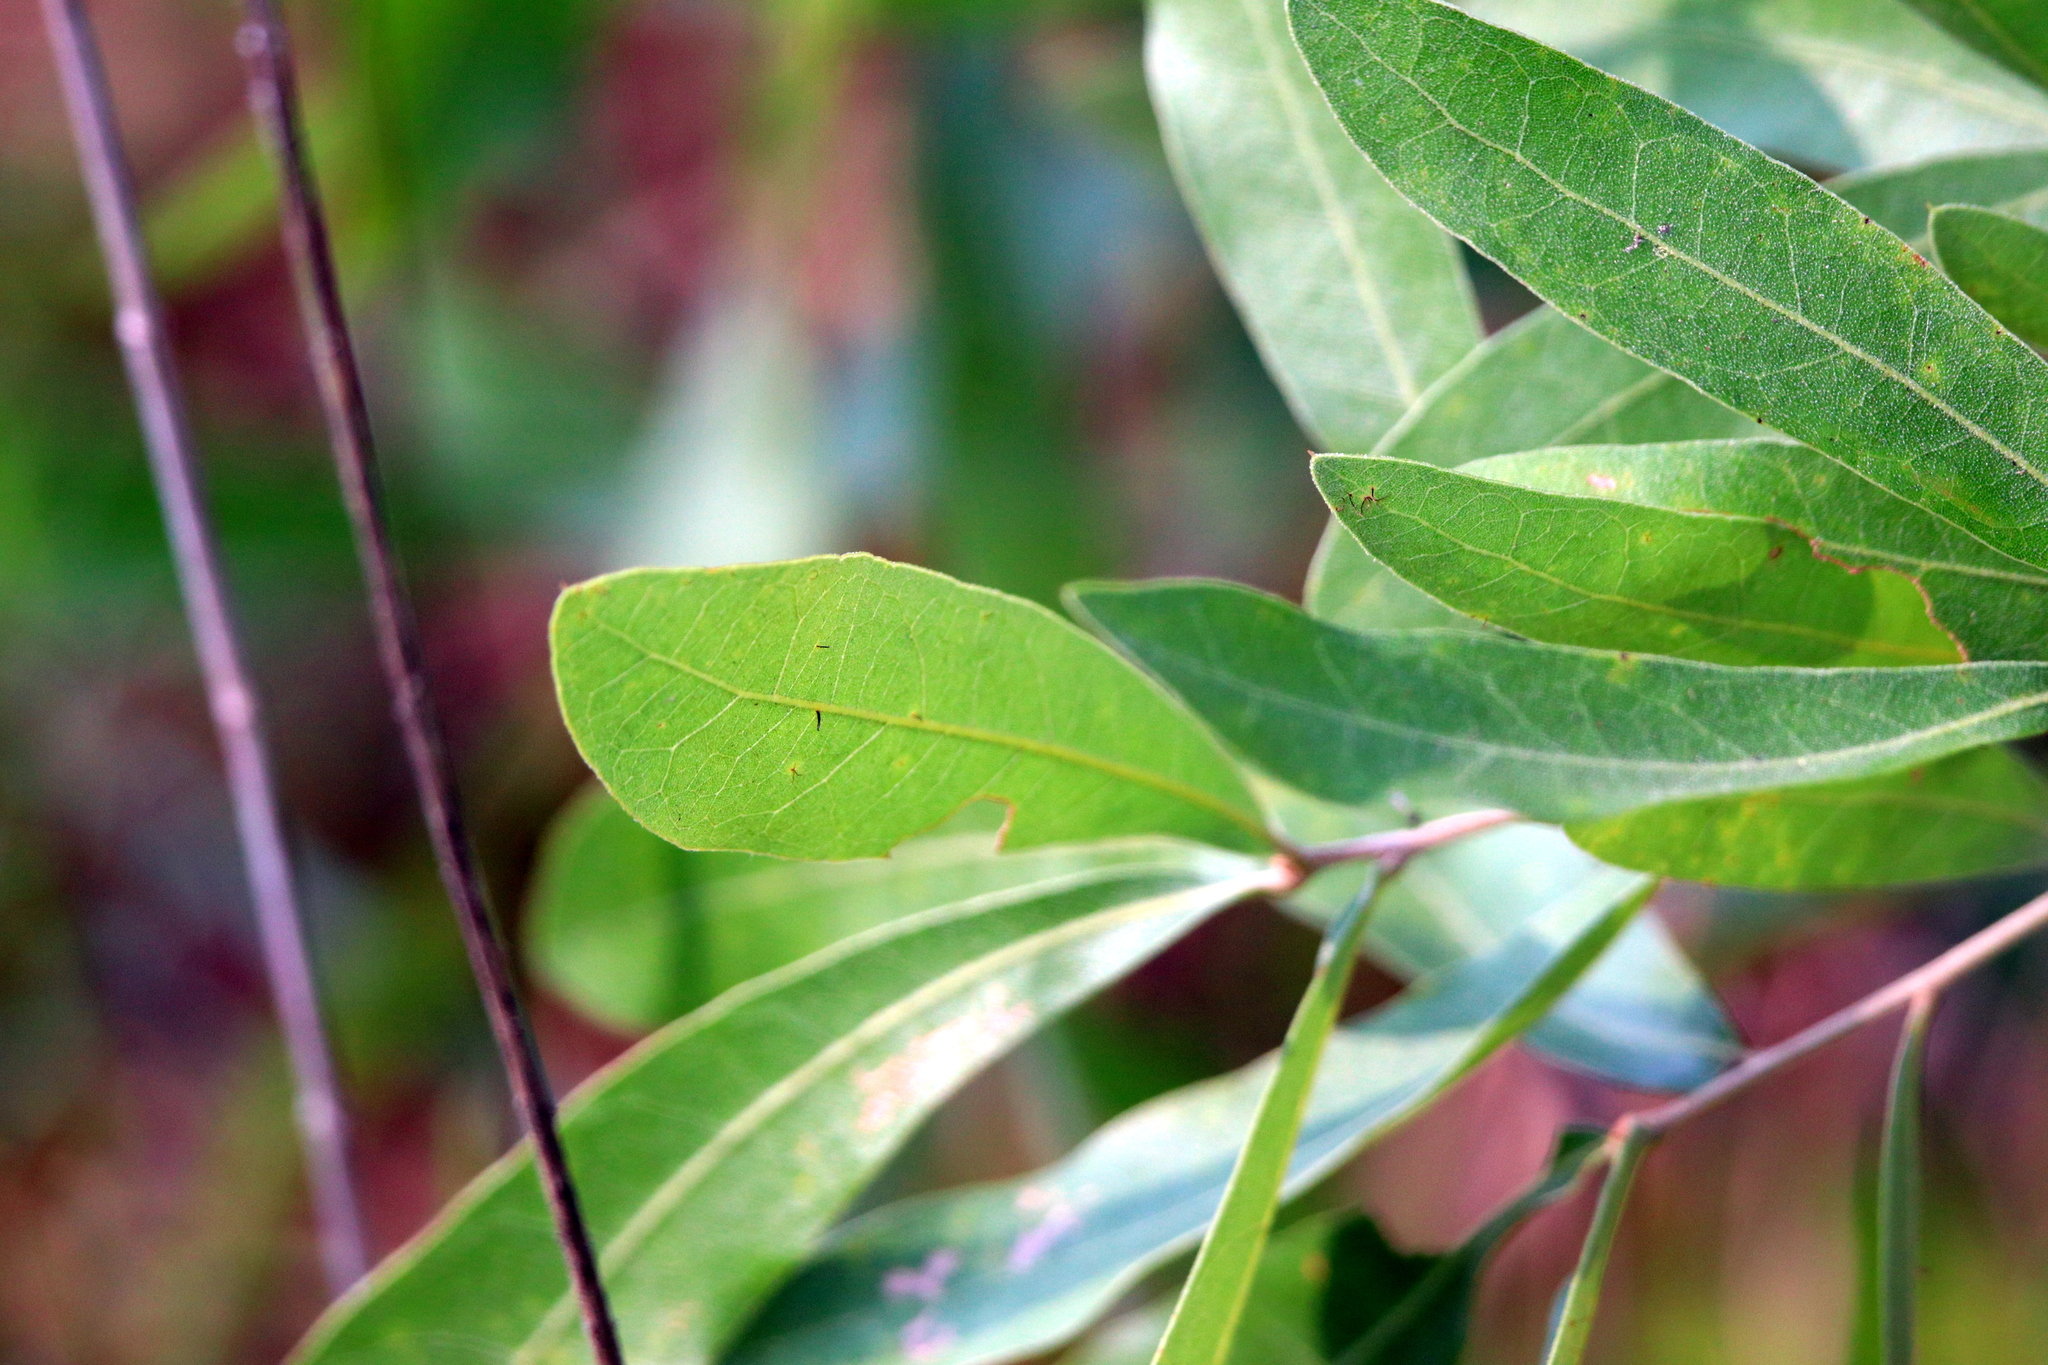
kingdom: Plantae
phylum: Tracheophyta
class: Magnoliopsida
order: Fagales
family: Fagaceae
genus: Quercus
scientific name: Quercus incana
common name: Bluejack oak
